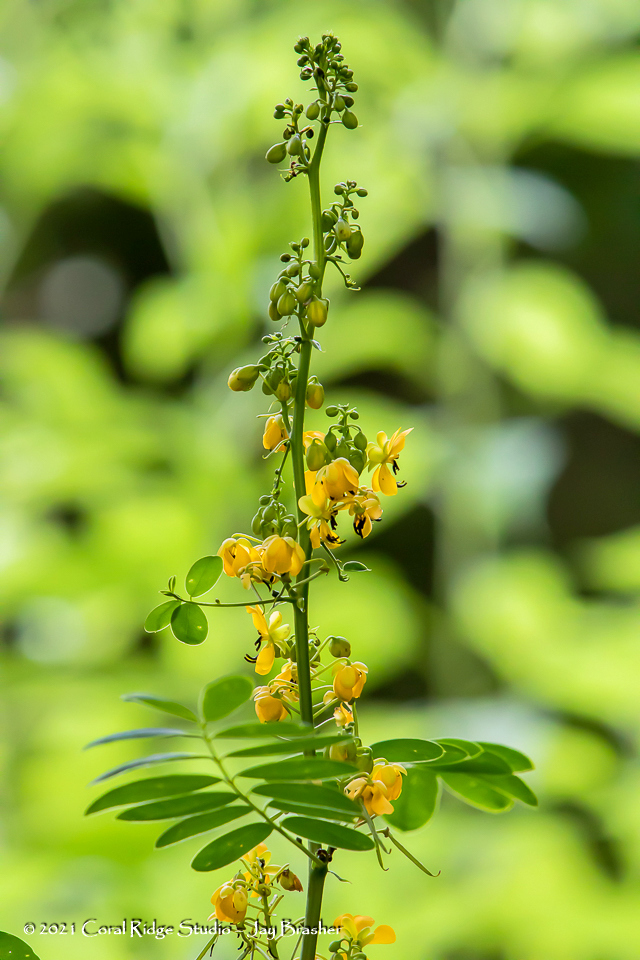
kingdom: Plantae
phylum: Tracheophyta
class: Magnoliopsida
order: Fabales
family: Fabaceae
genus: Senna
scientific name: Senna marilandica
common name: American senna
